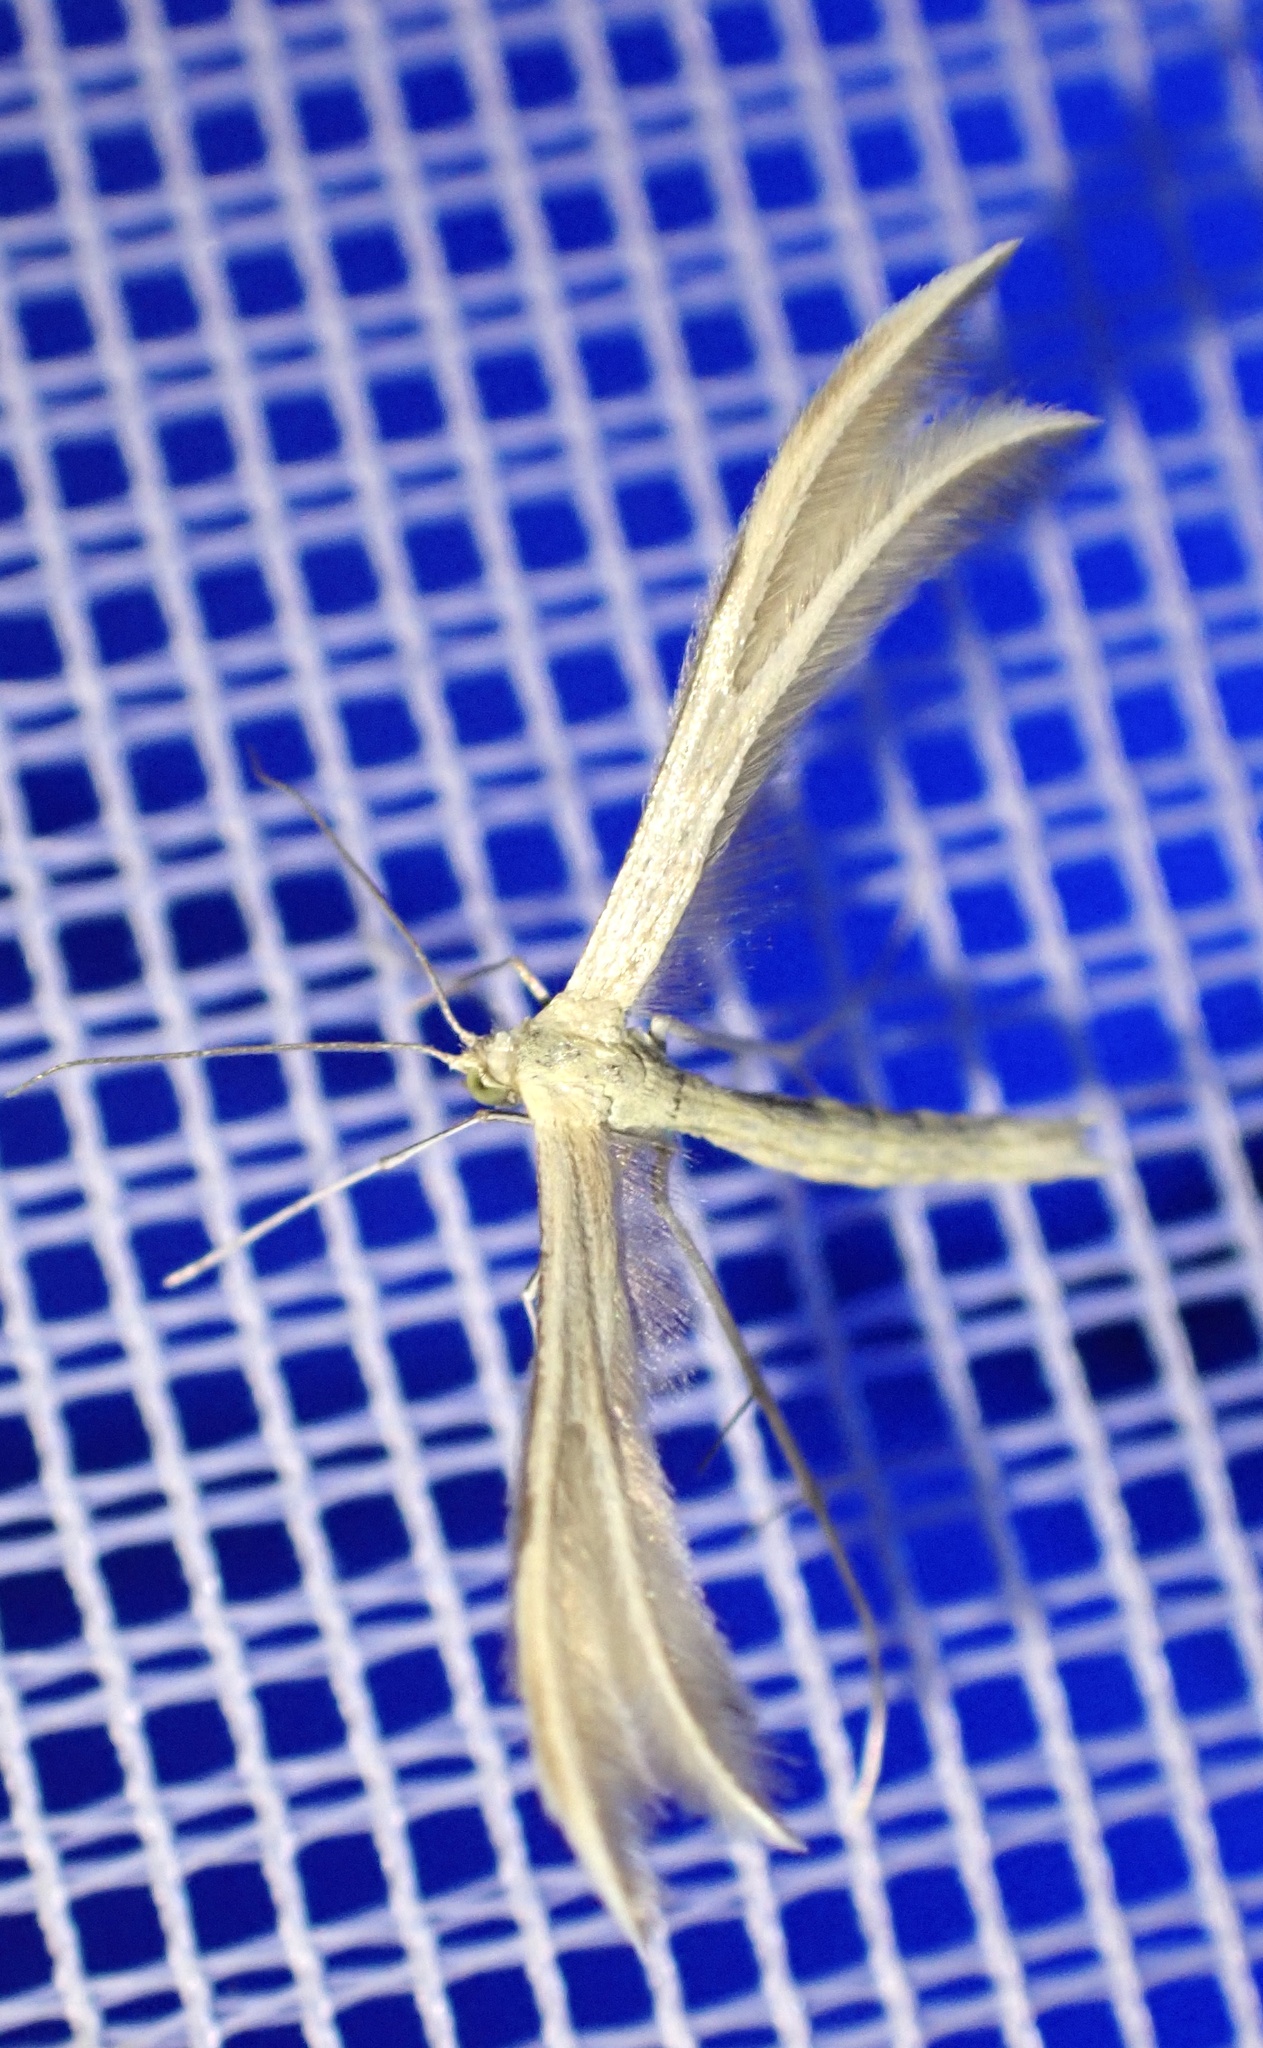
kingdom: Animalia
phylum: Arthropoda
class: Insecta
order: Lepidoptera
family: Pterophoridae
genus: Pterophorus
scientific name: Pterophorus pentadactyla
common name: White plume moth
